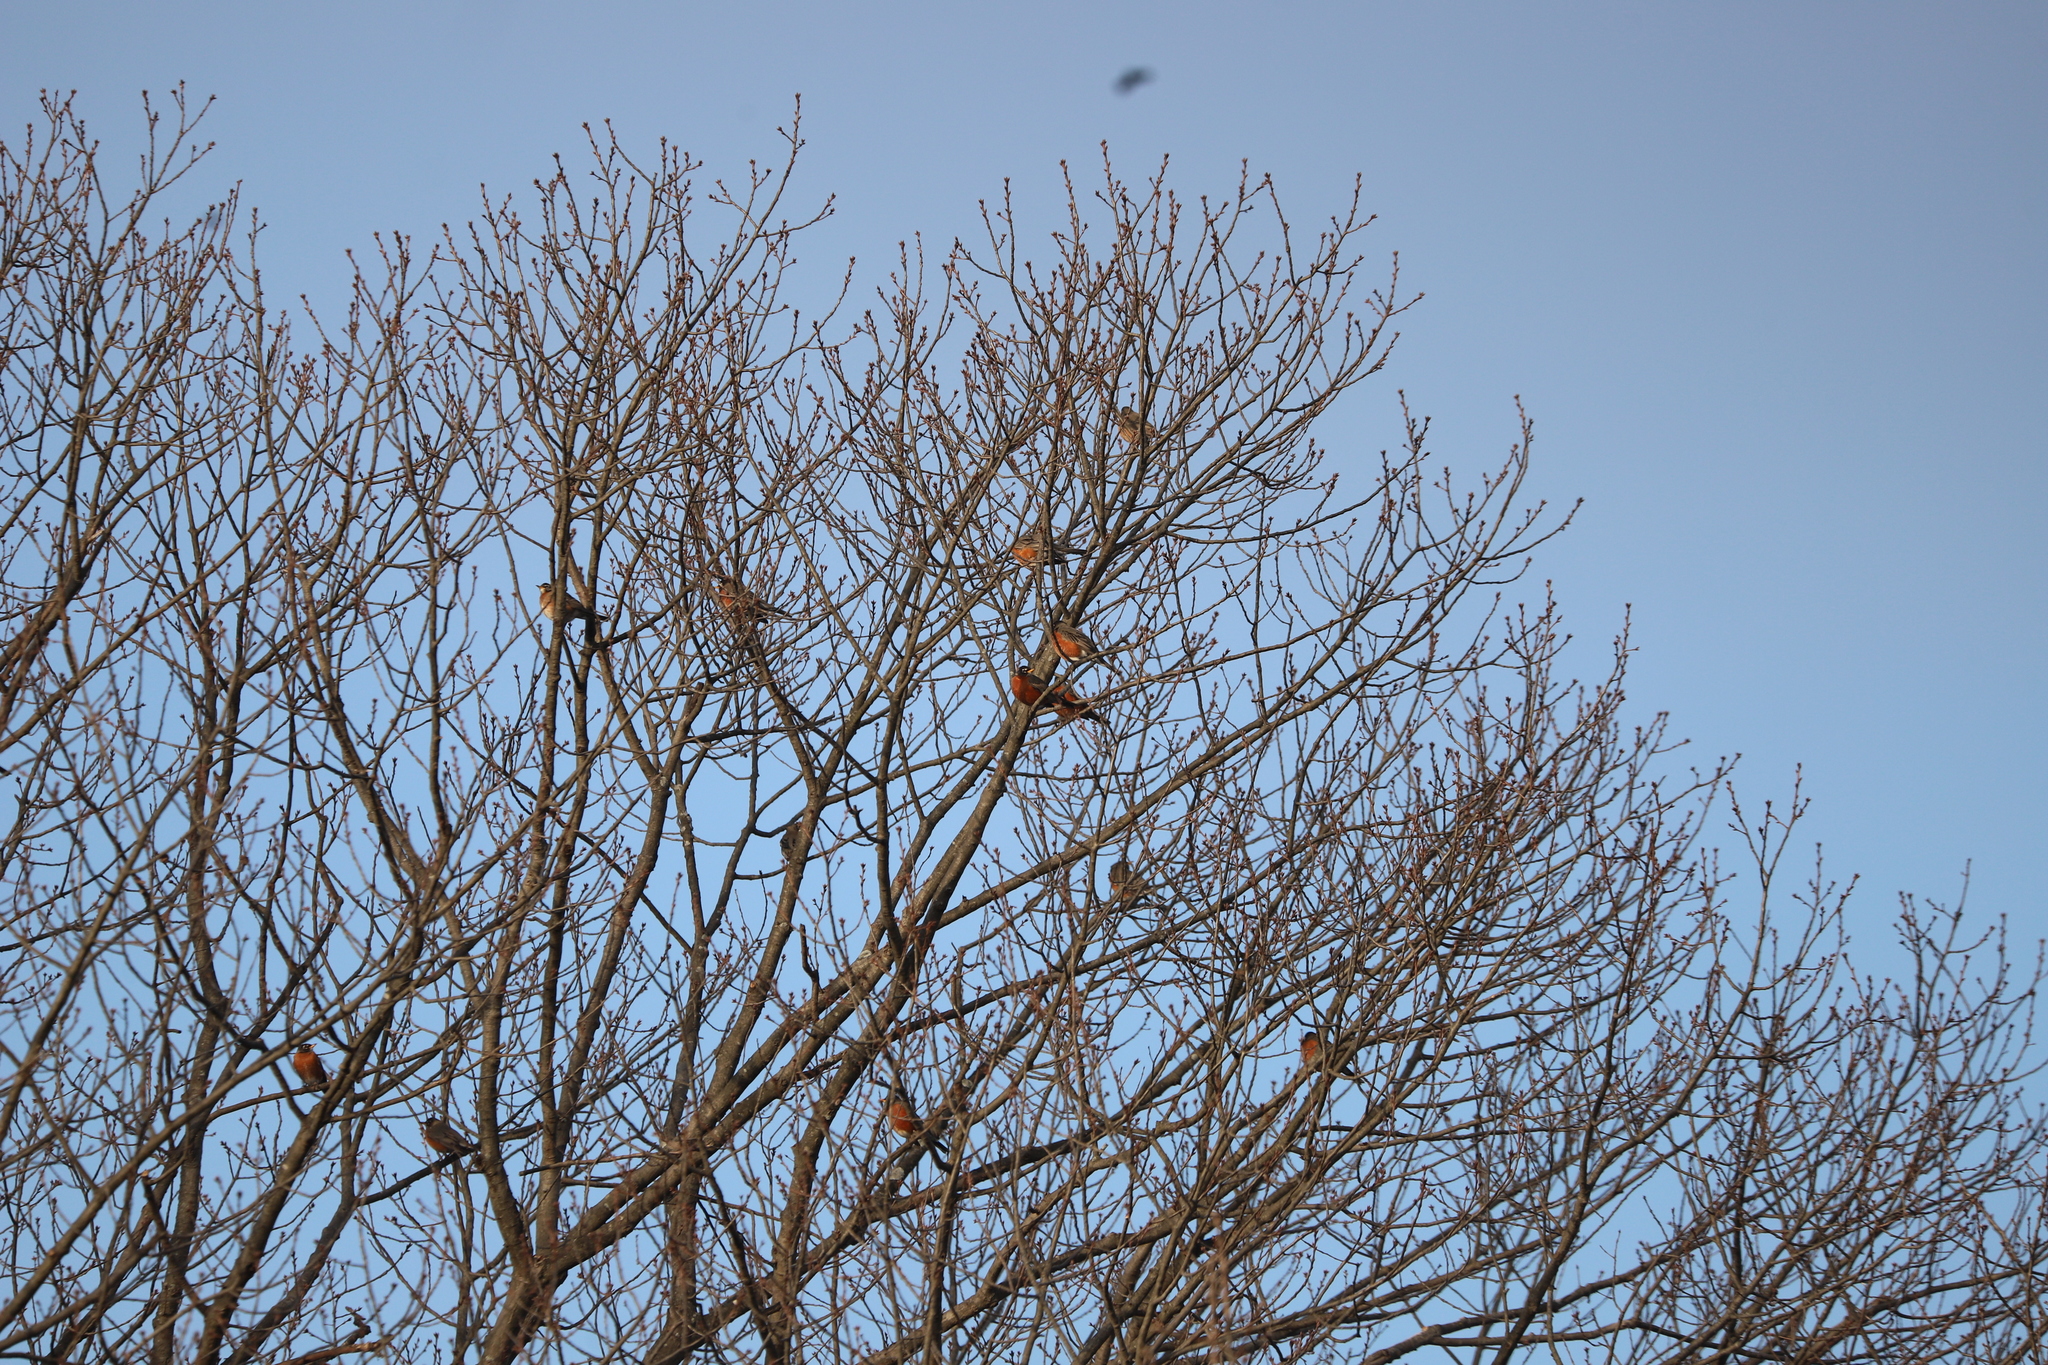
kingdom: Animalia
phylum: Chordata
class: Aves
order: Passeriformes
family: Turdidae
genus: Turdus
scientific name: Turdus migratorius
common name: American robin
